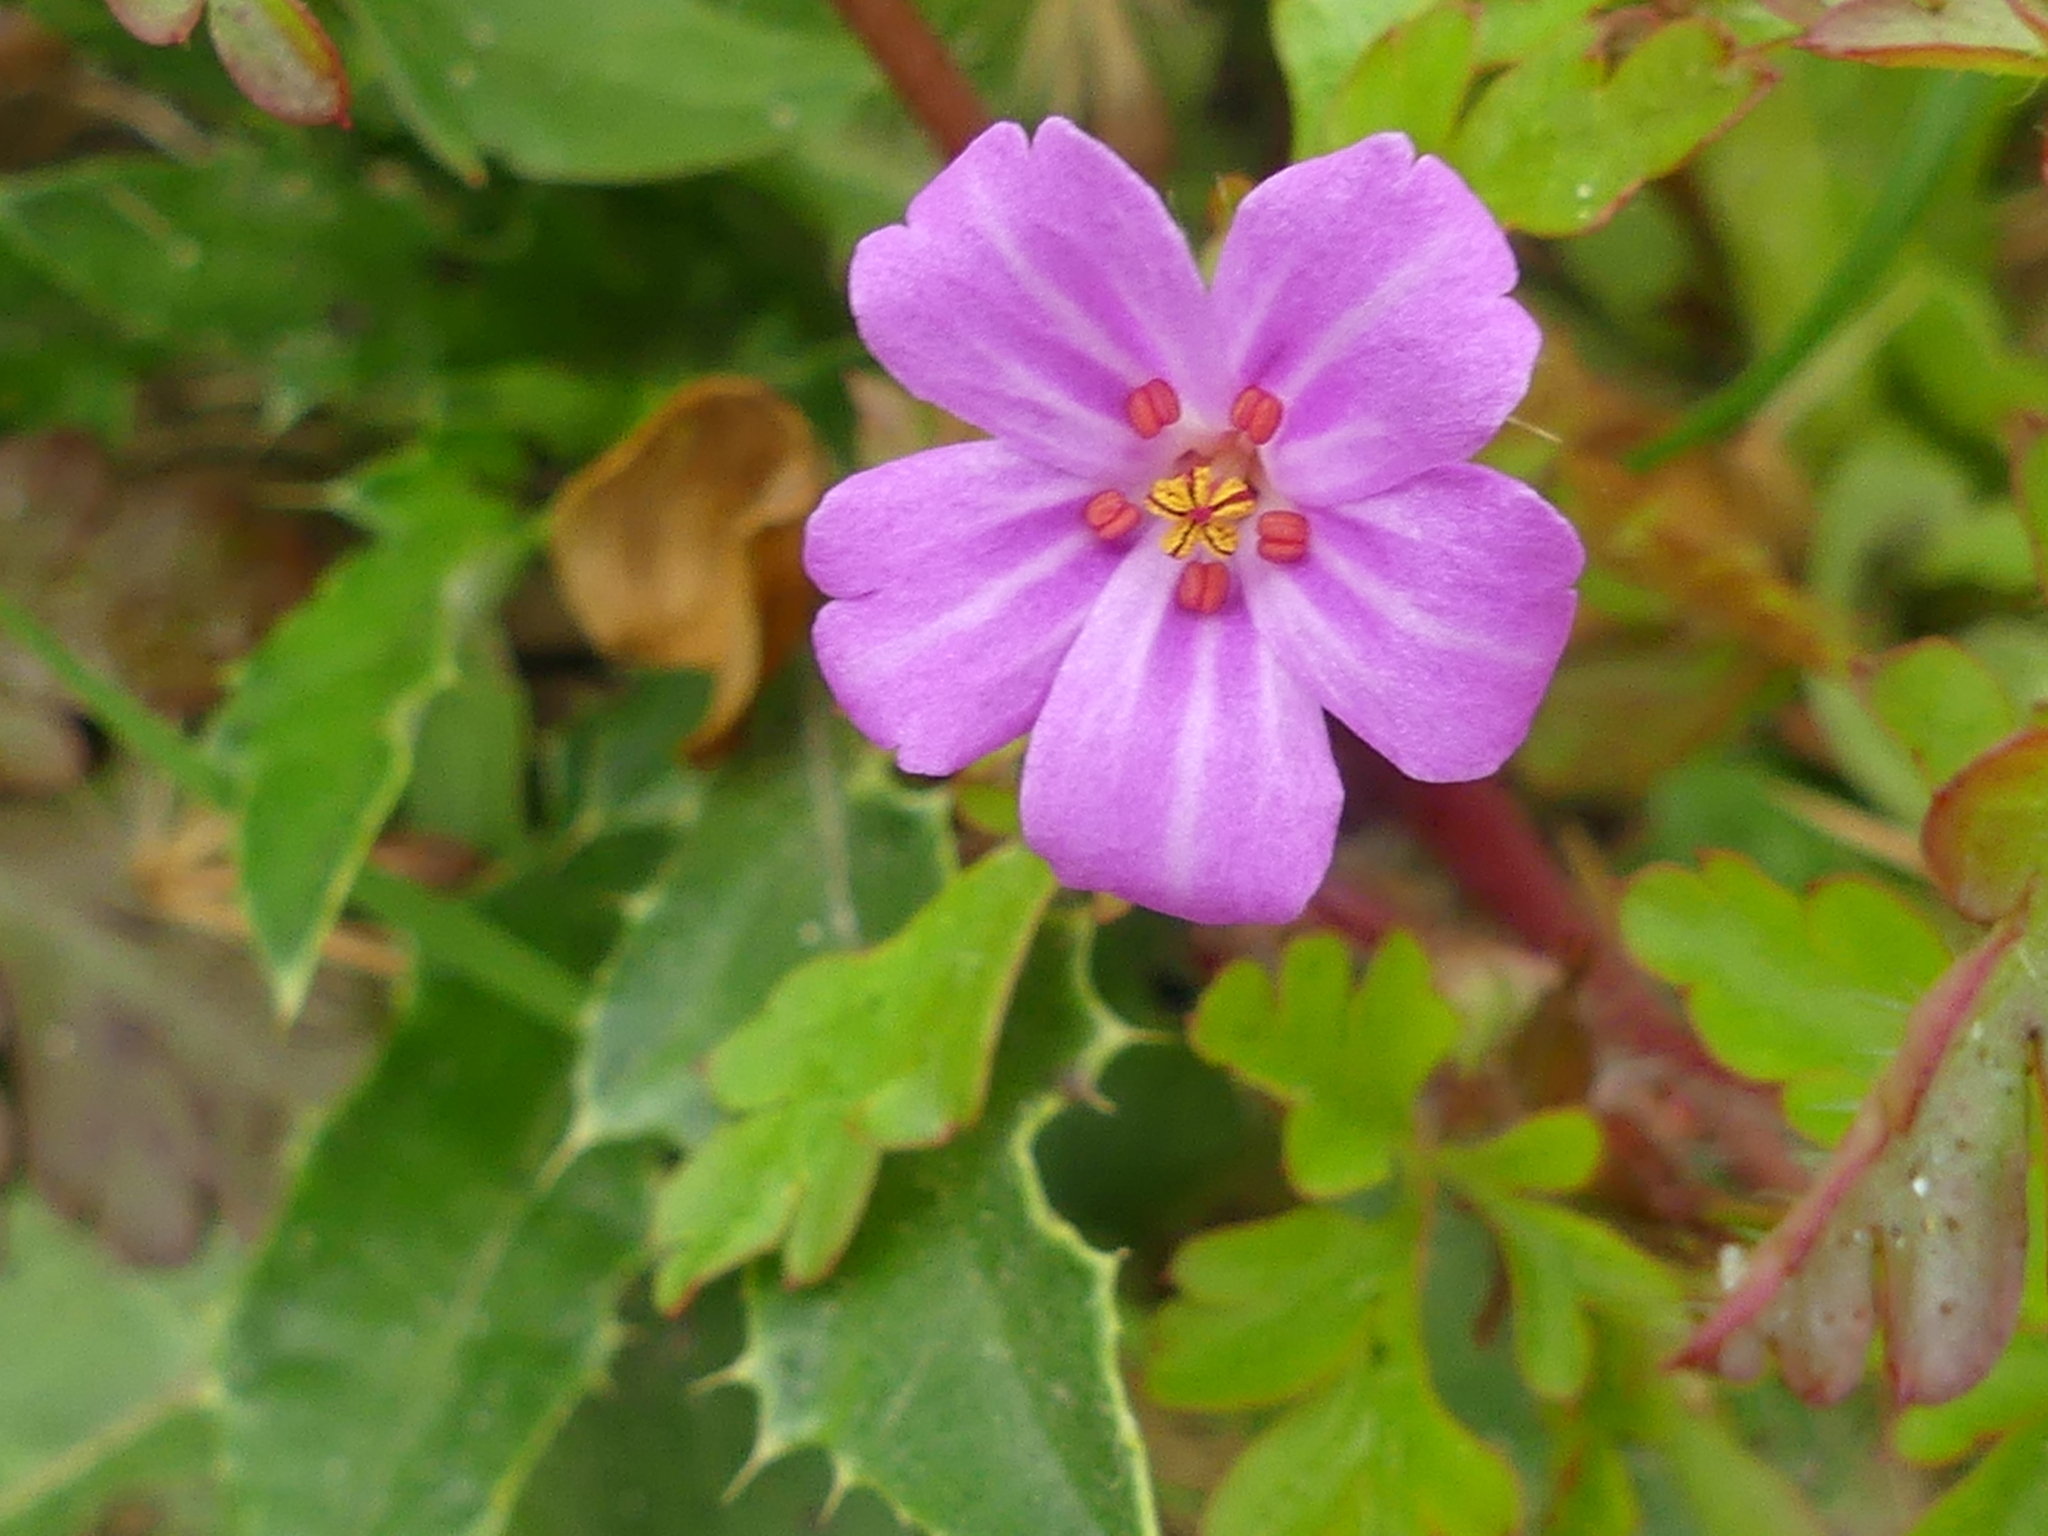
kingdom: Plantae
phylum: Tracheophyta
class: Magnoliopsida
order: Geraniales
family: Geraniaceae
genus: Geranium
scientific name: Geranium robertianum
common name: Herb-robert
